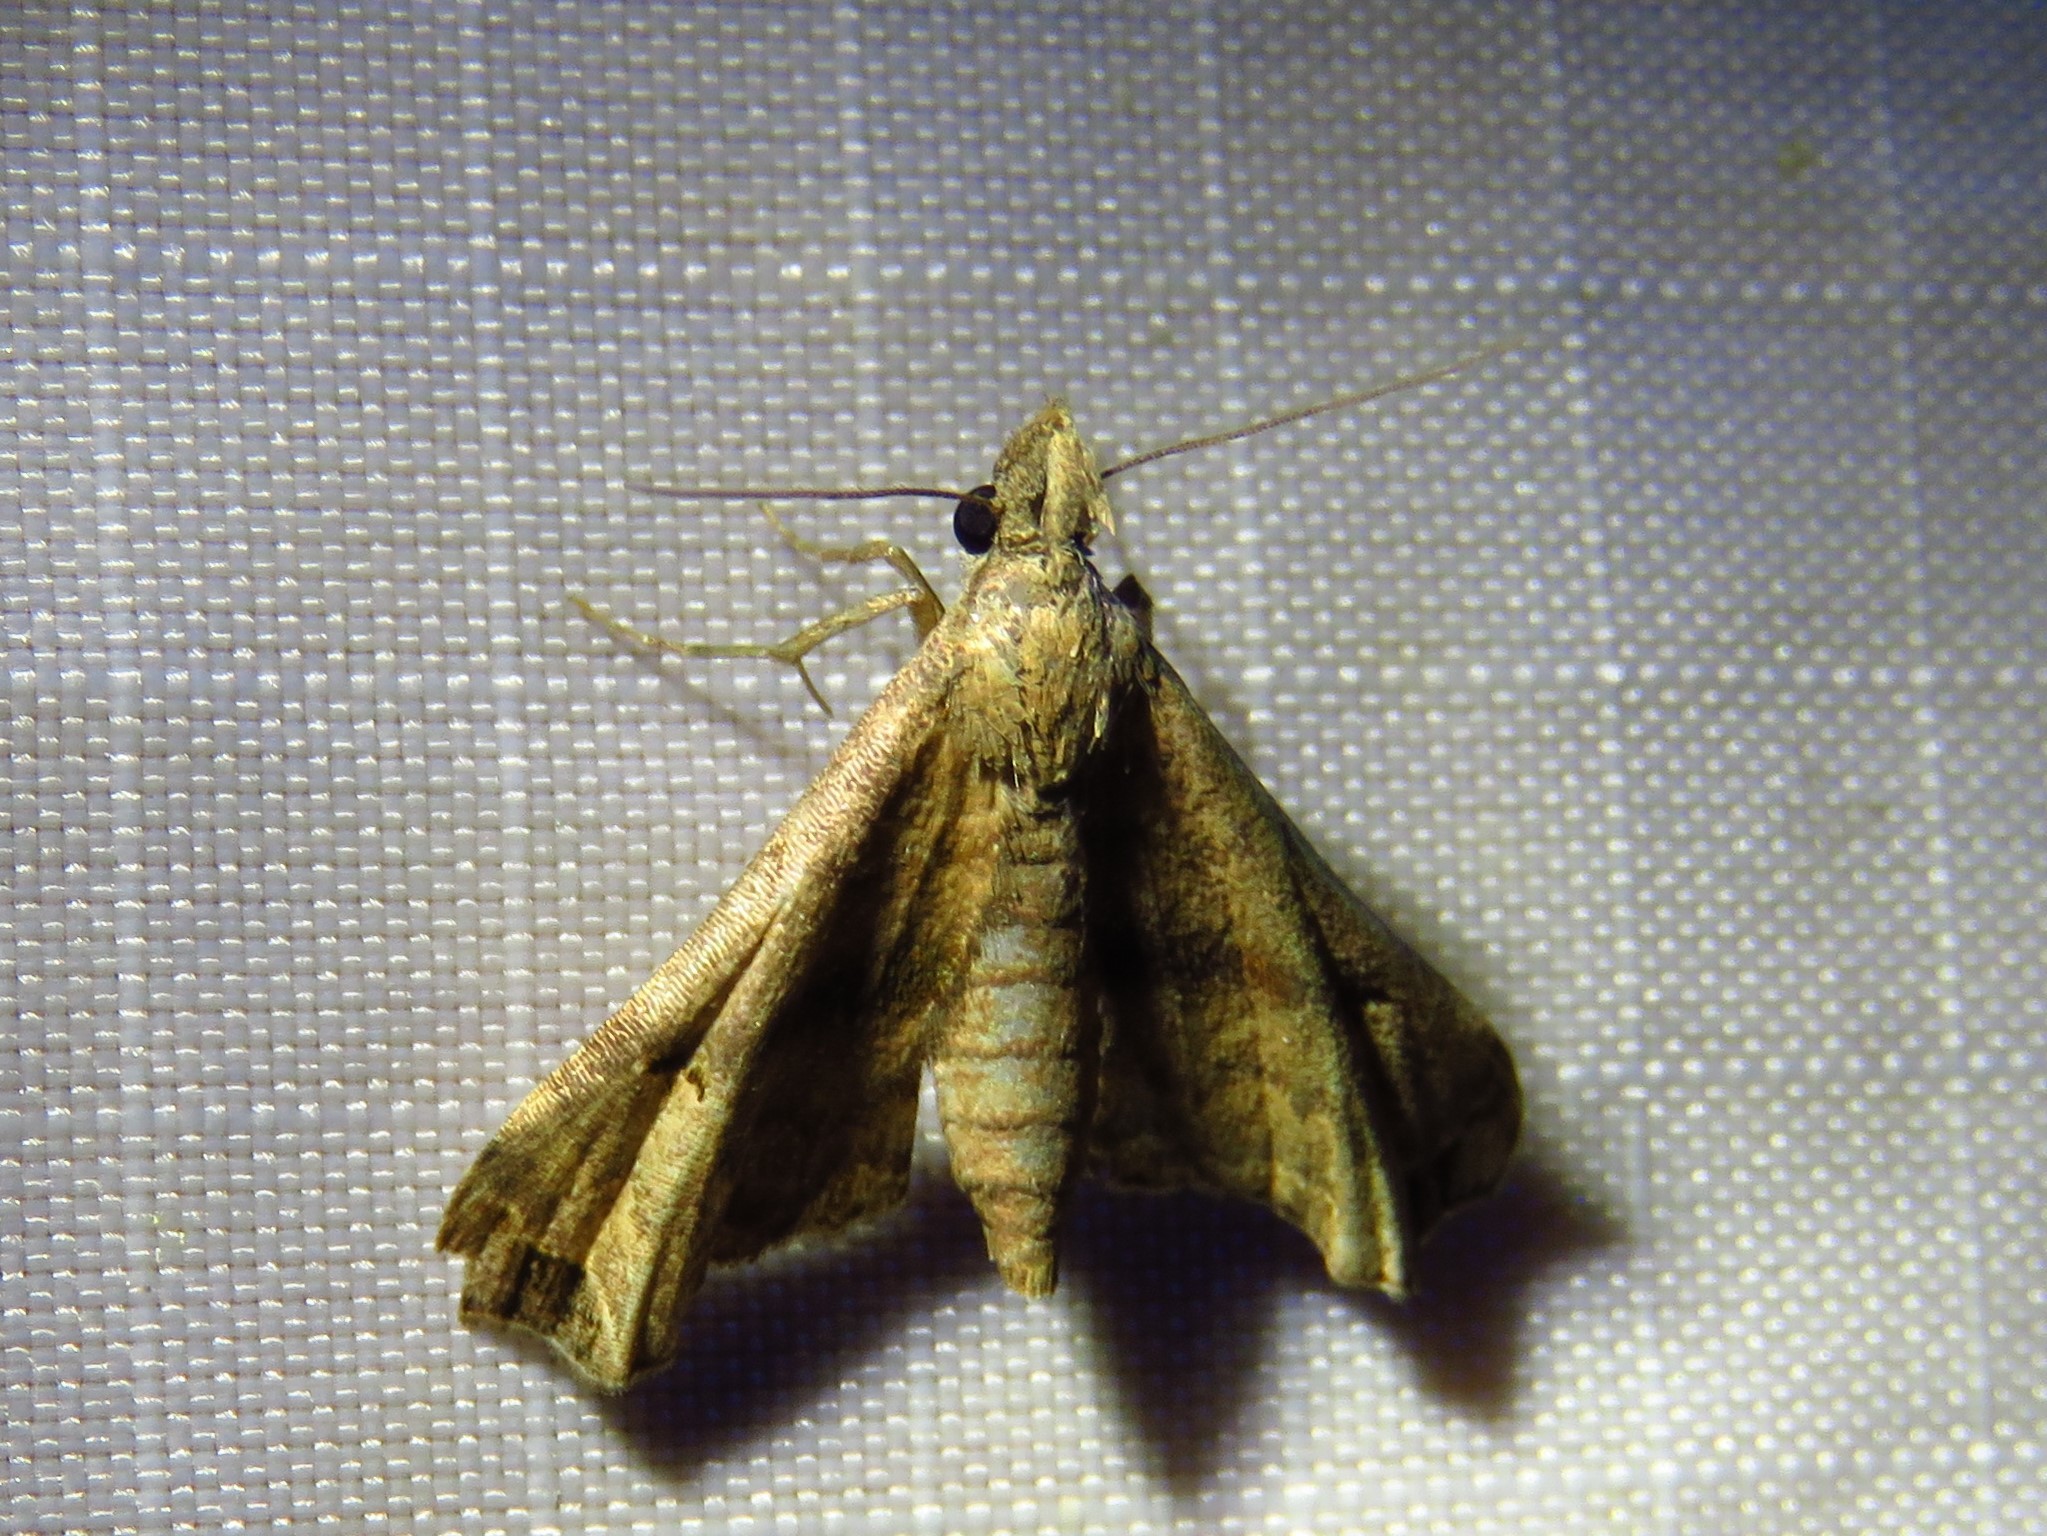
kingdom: Animalia
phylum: Arthropoda
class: Insecta
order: Lepidoptera
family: Erebidae
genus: Palthis
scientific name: Palthis asopialis
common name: Faint-spotted palthis moth
